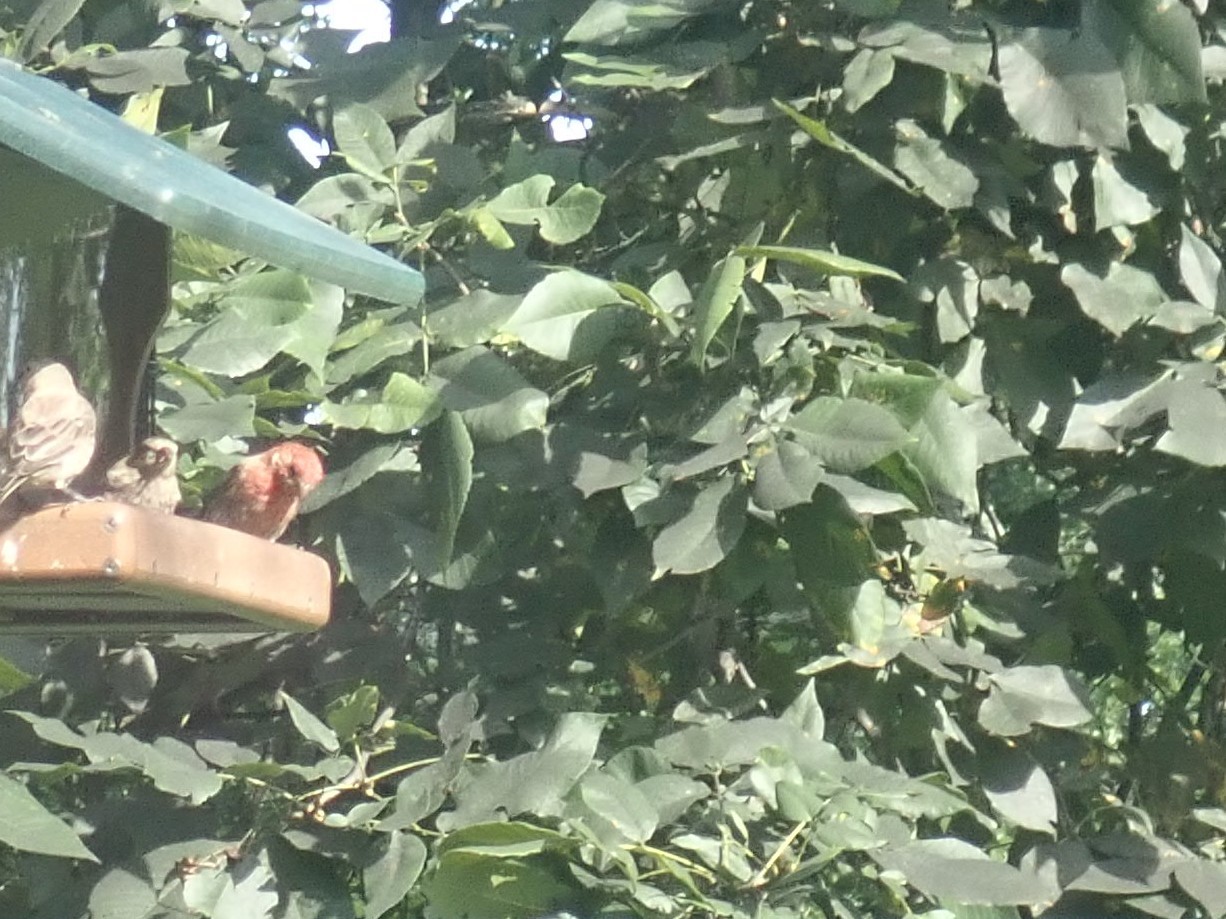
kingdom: Animalia
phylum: Chordata
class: Aves
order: Passeriformes
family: Fringillidae
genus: Haemorhous
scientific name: Haemorhous mexicanus
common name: House finch
